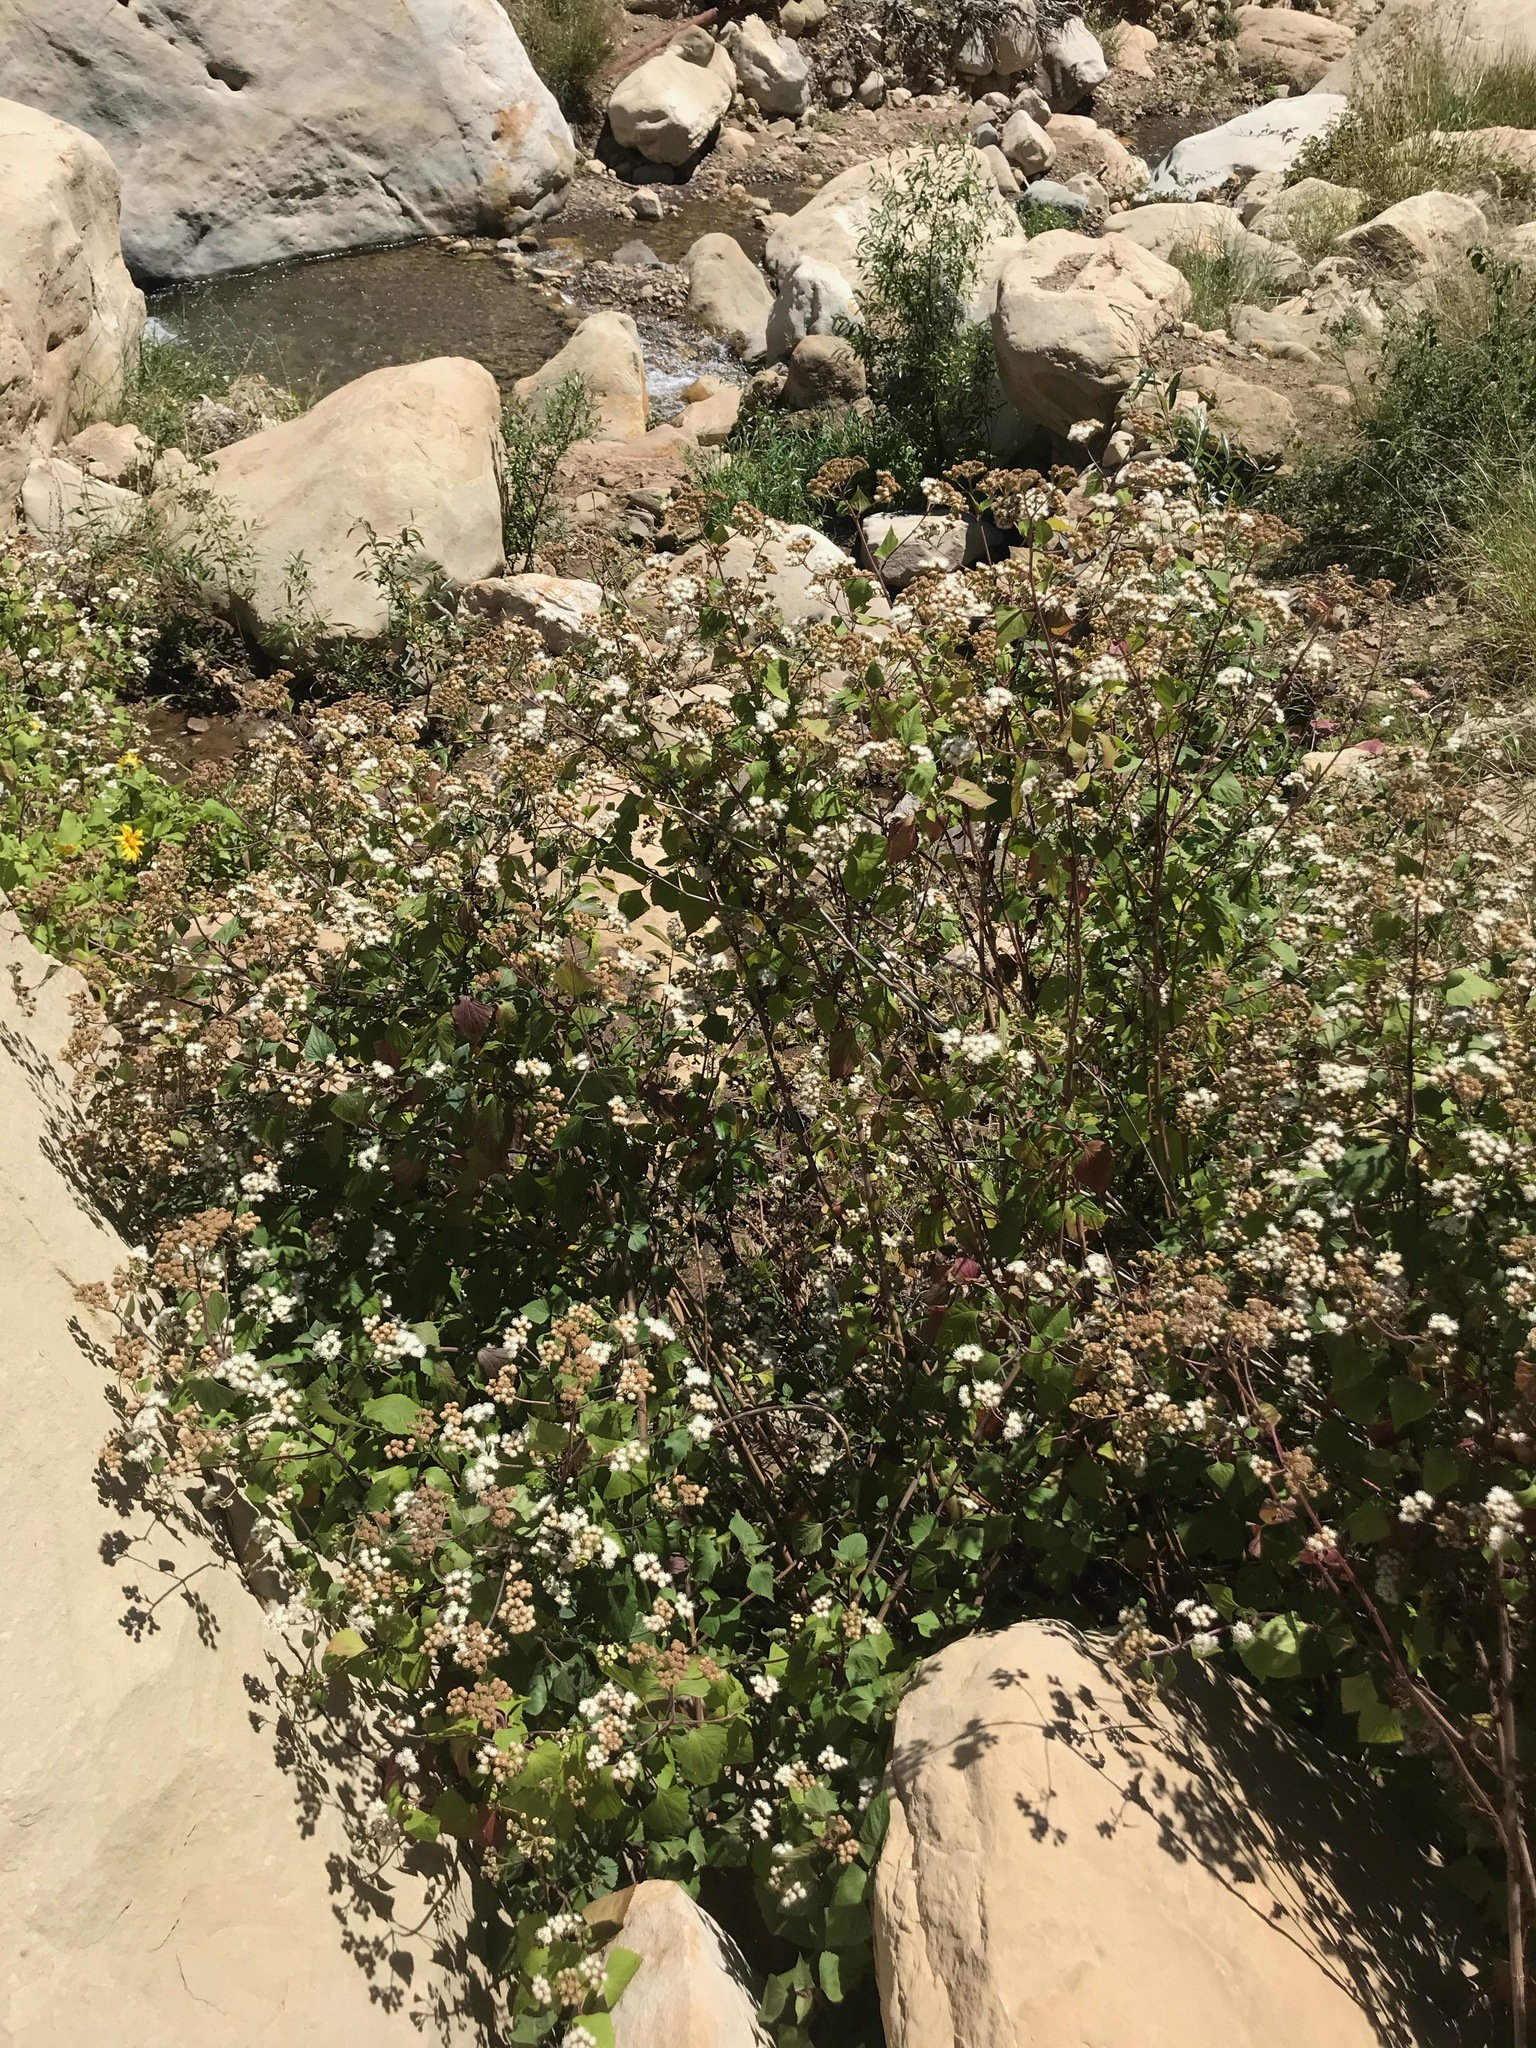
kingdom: Plantae
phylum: Tracheophyta
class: Magnoliopsida
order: Asterales
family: Asteraceae
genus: Ageratina
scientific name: Ageratina adenophora
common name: Sticky snakeroot
